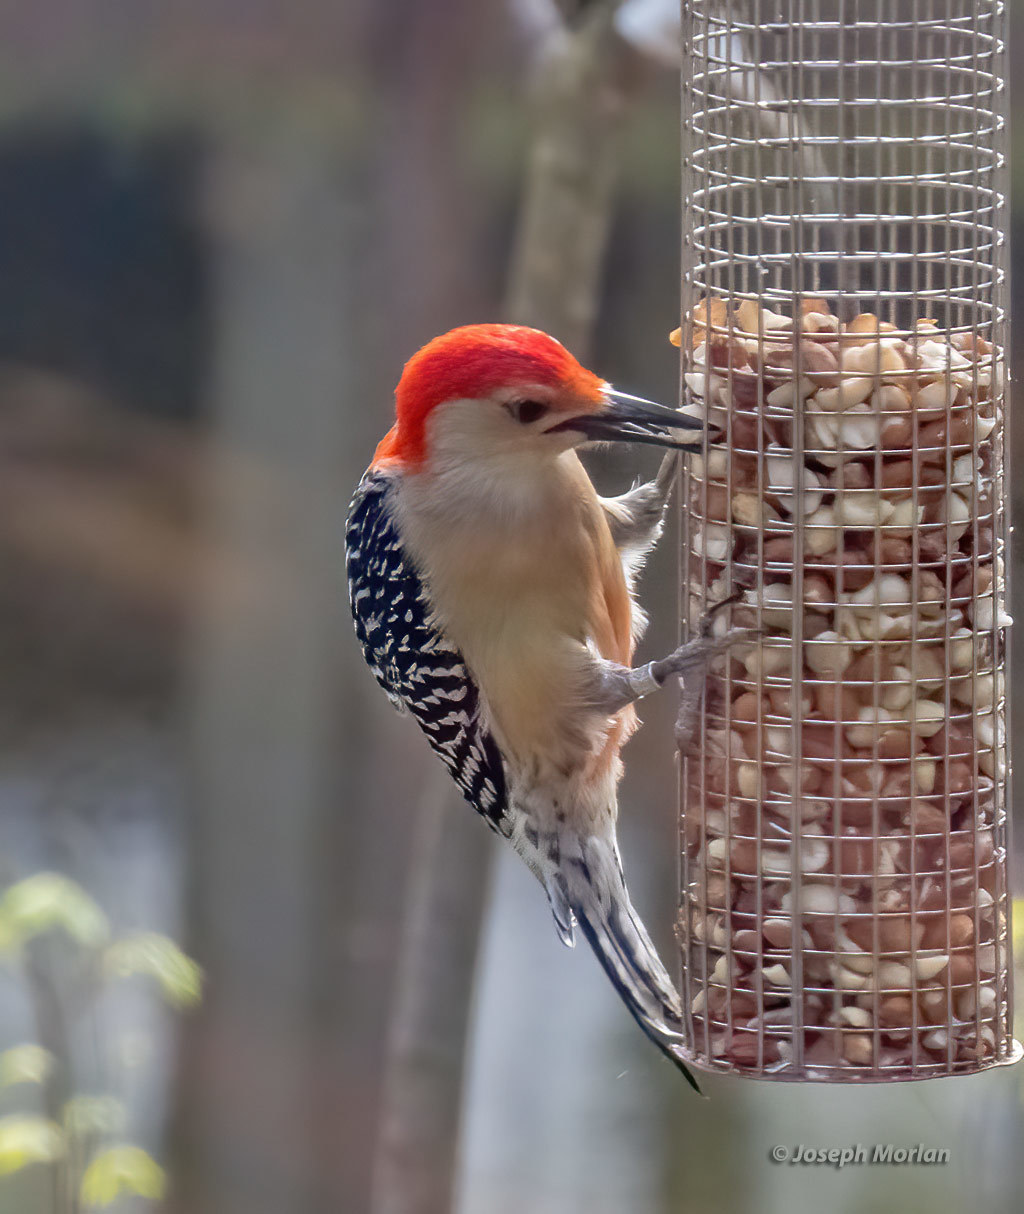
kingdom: Animalia
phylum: Chordata
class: Aves
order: Piciformes
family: Picidae
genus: Melanerpes
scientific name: Melanerpes carolinus
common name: Red-bellied woodpecker
